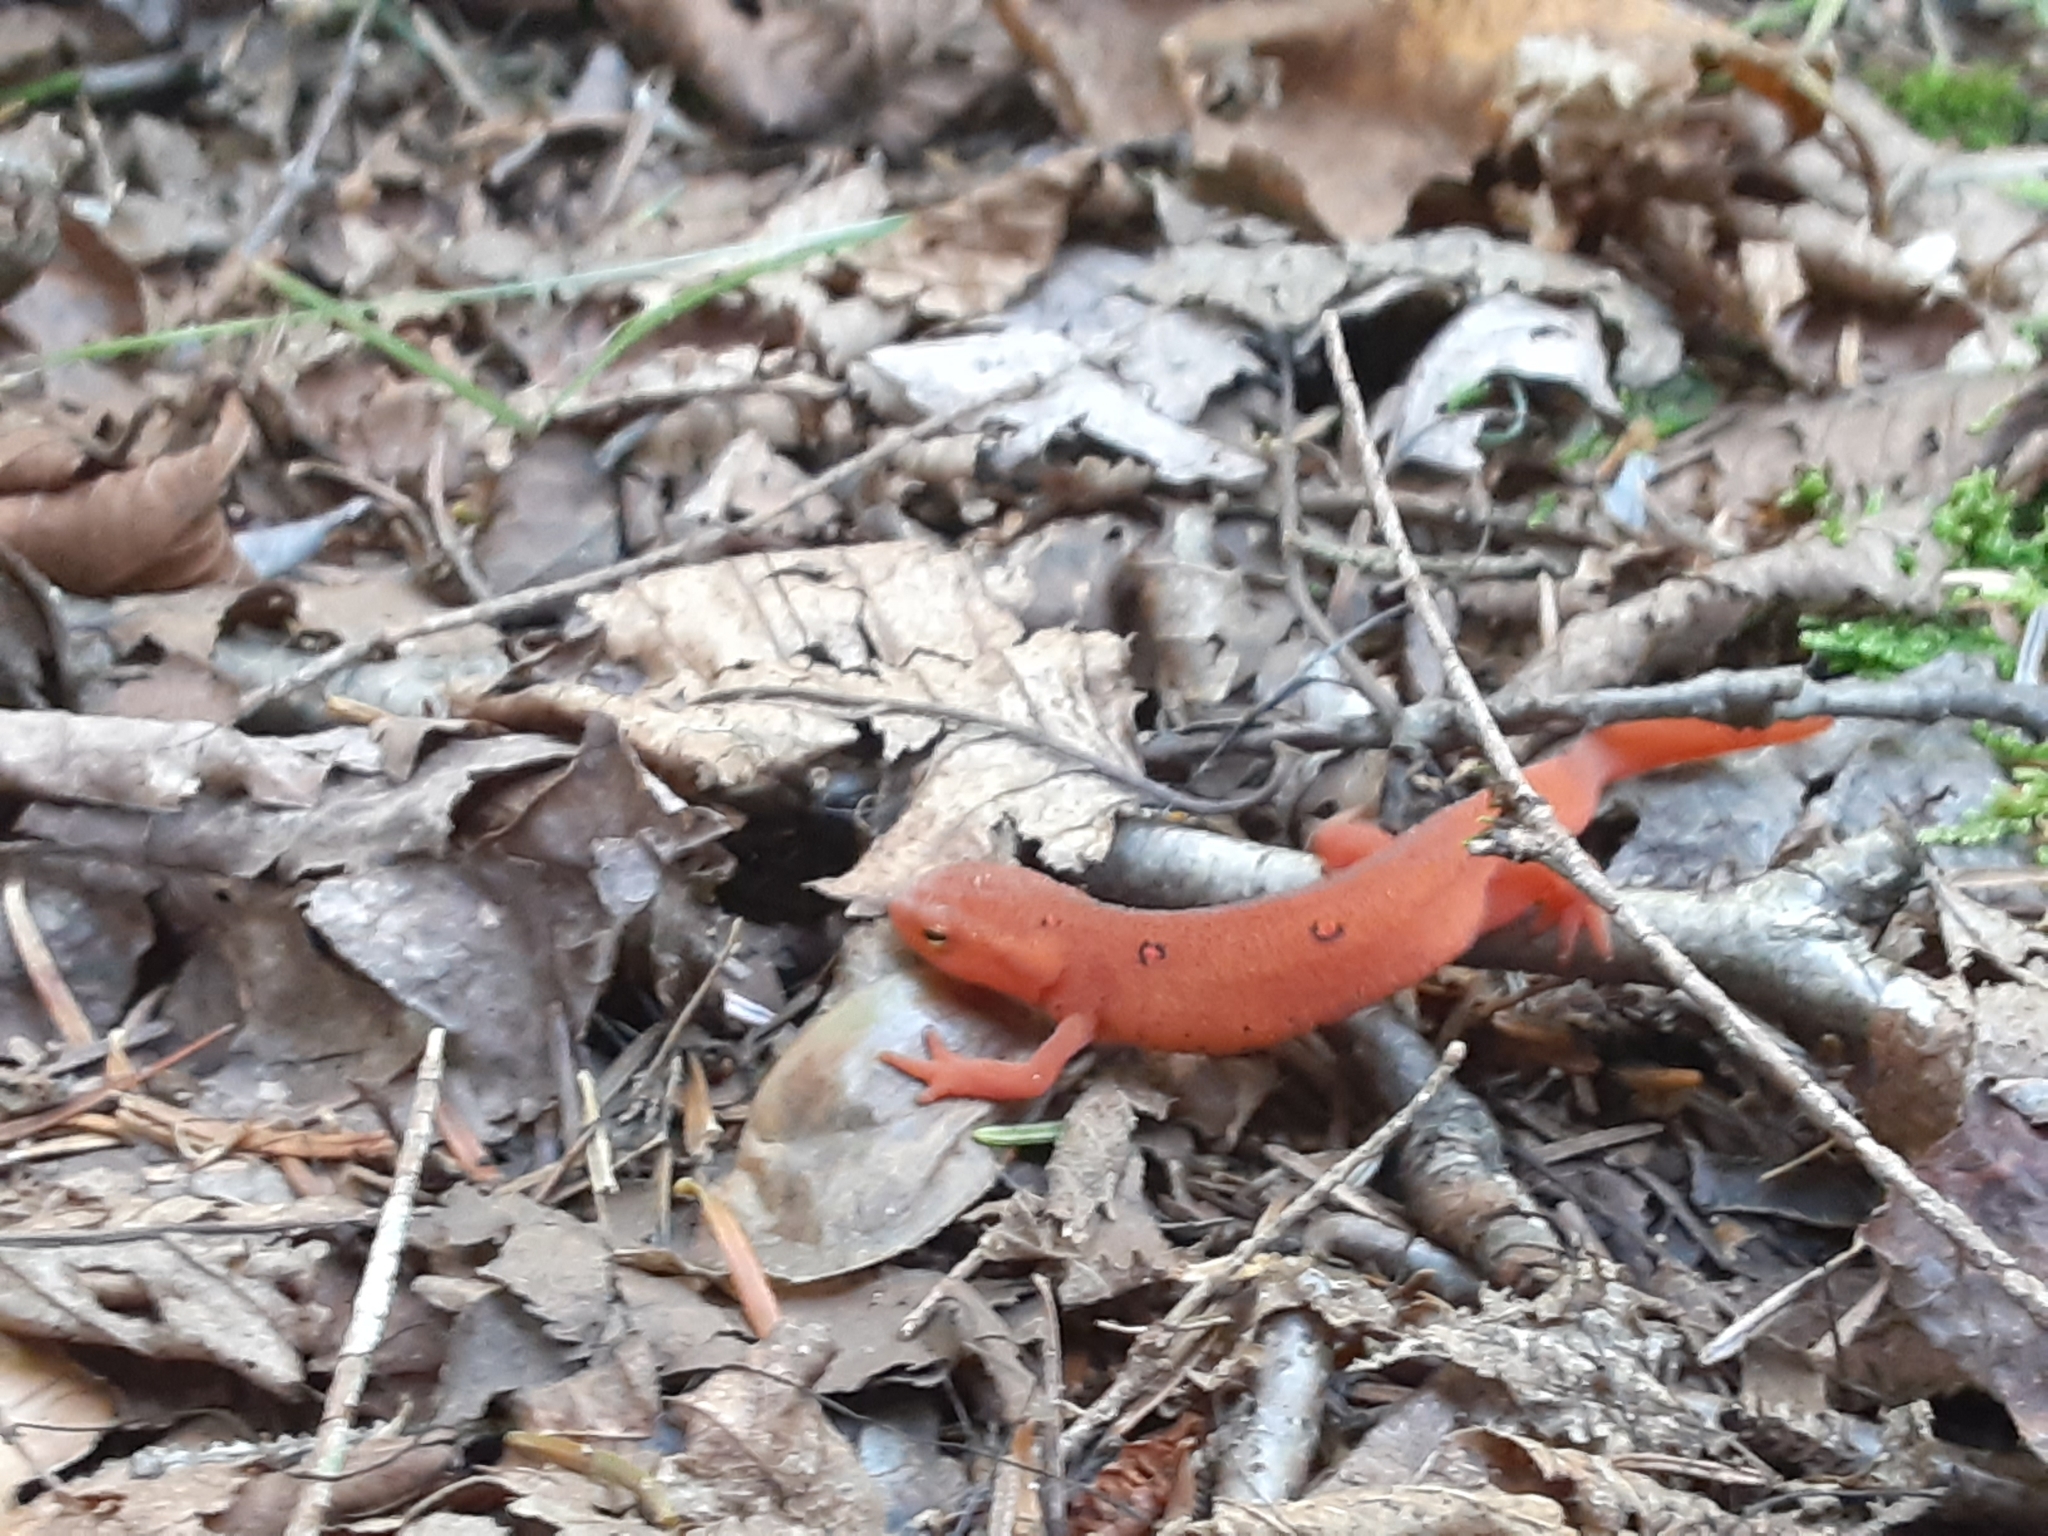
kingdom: Animalia
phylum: Chordata
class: Amphibia
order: Caudata
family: Salamandridae
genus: Notophthalmus
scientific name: Notophthalmus viridescens
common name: Eastern newt
